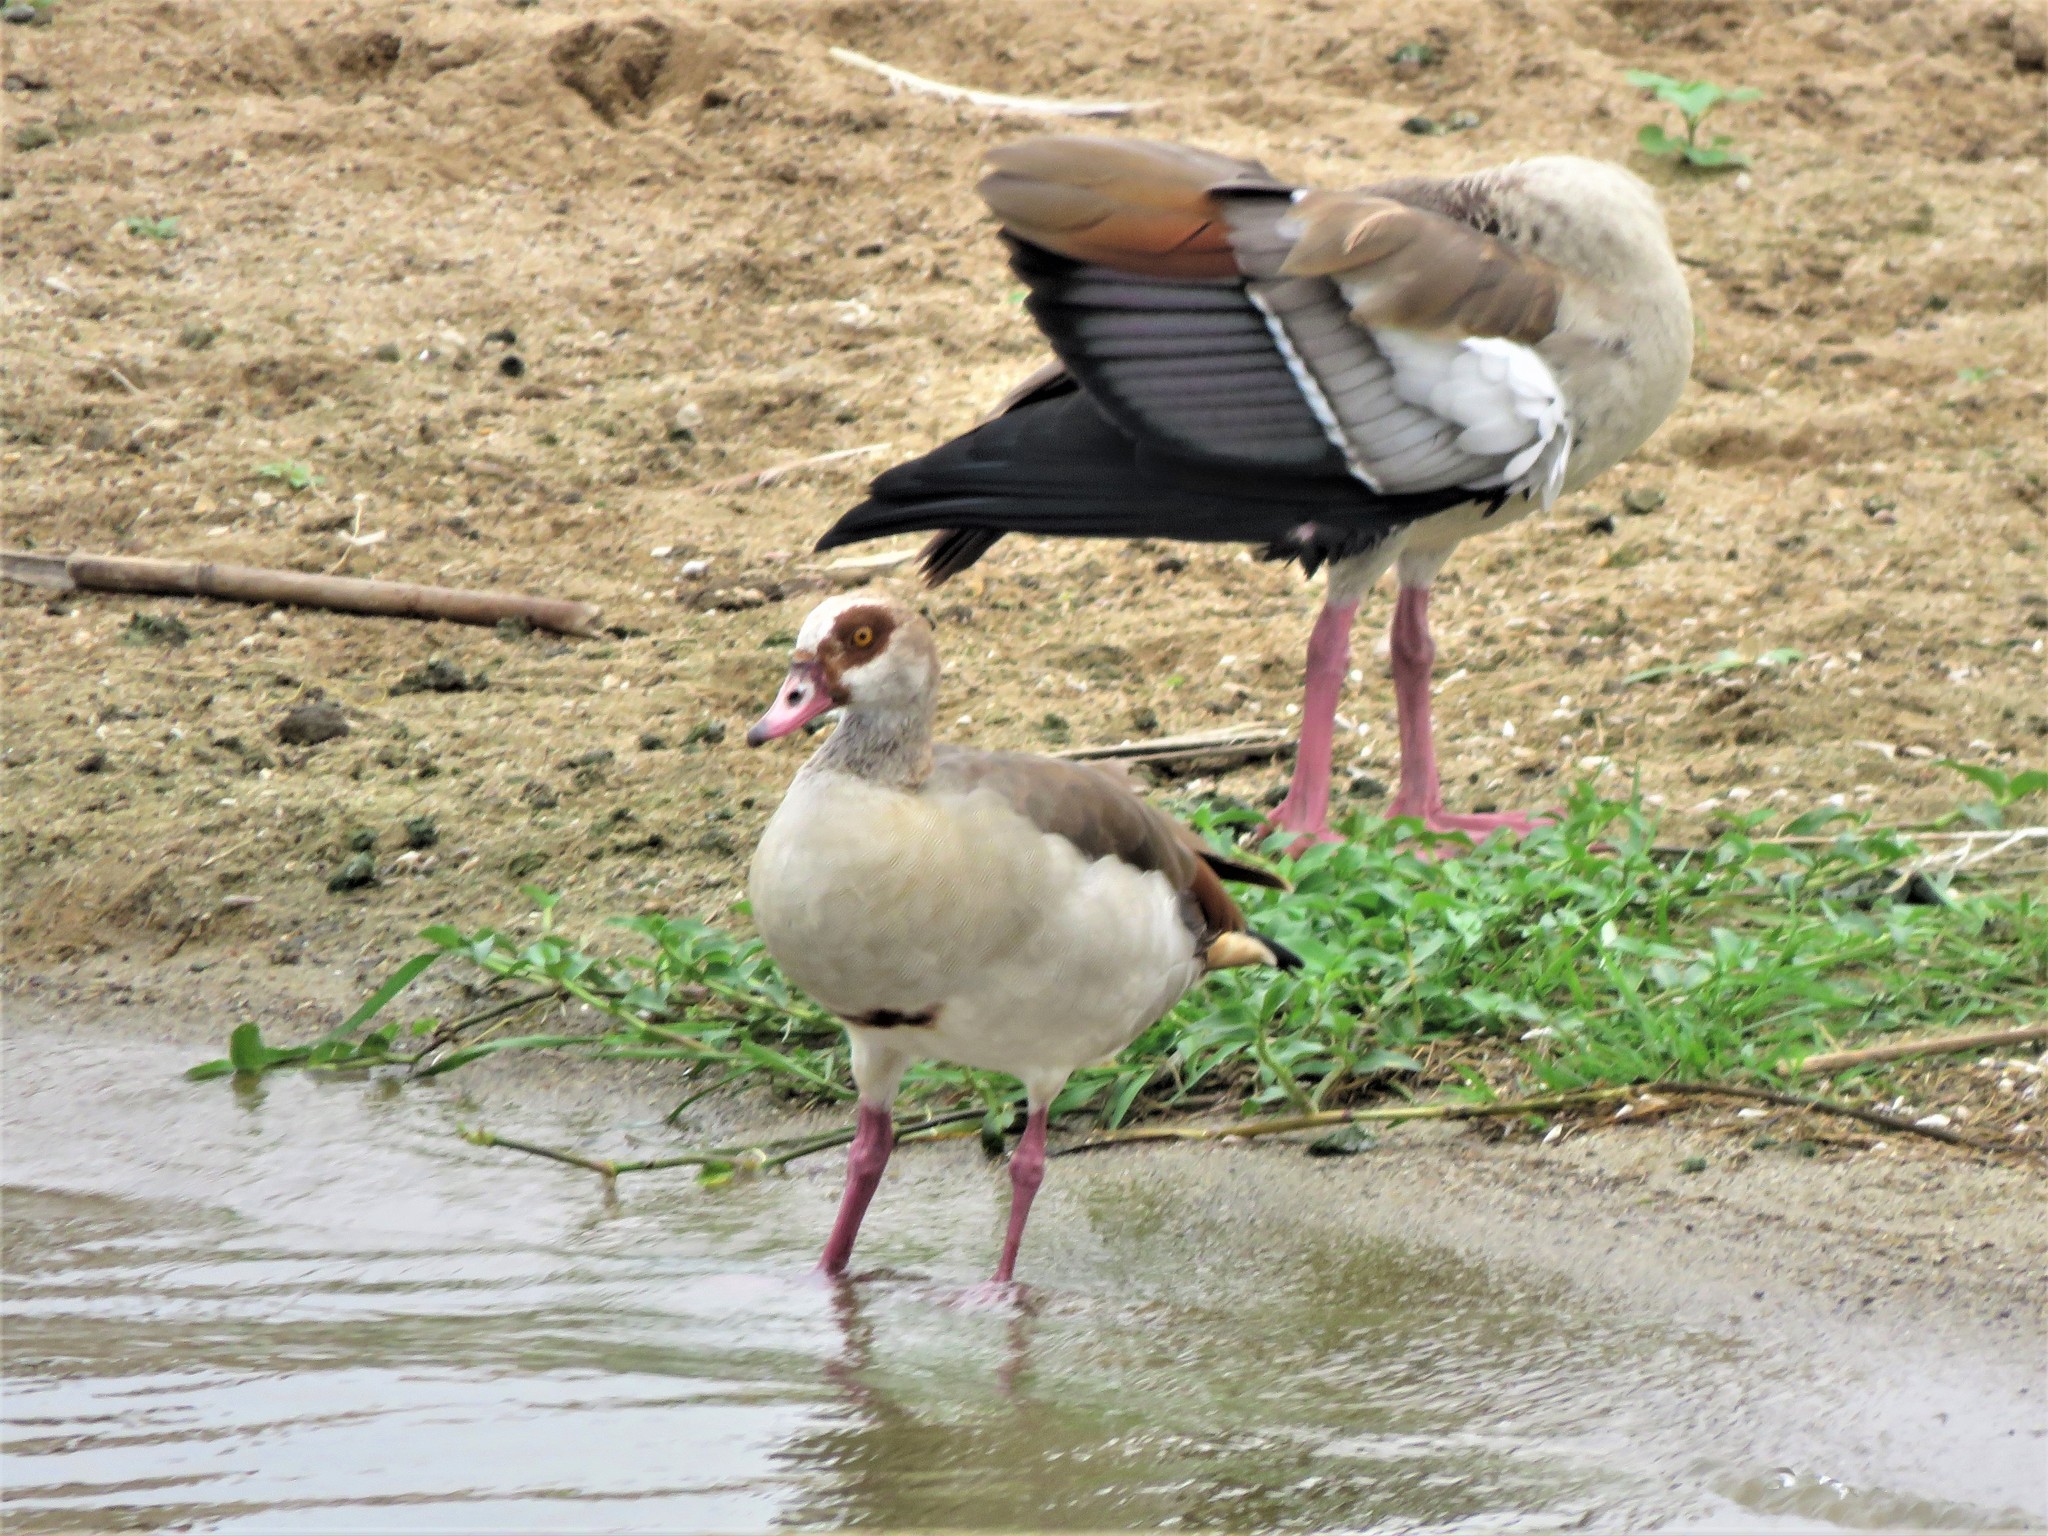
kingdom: Animalia
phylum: Chordata
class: Aves
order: Anseriformes
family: Anatidae
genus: Alopochen
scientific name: Alopochen aegyptiaca
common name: Egyptian goose
